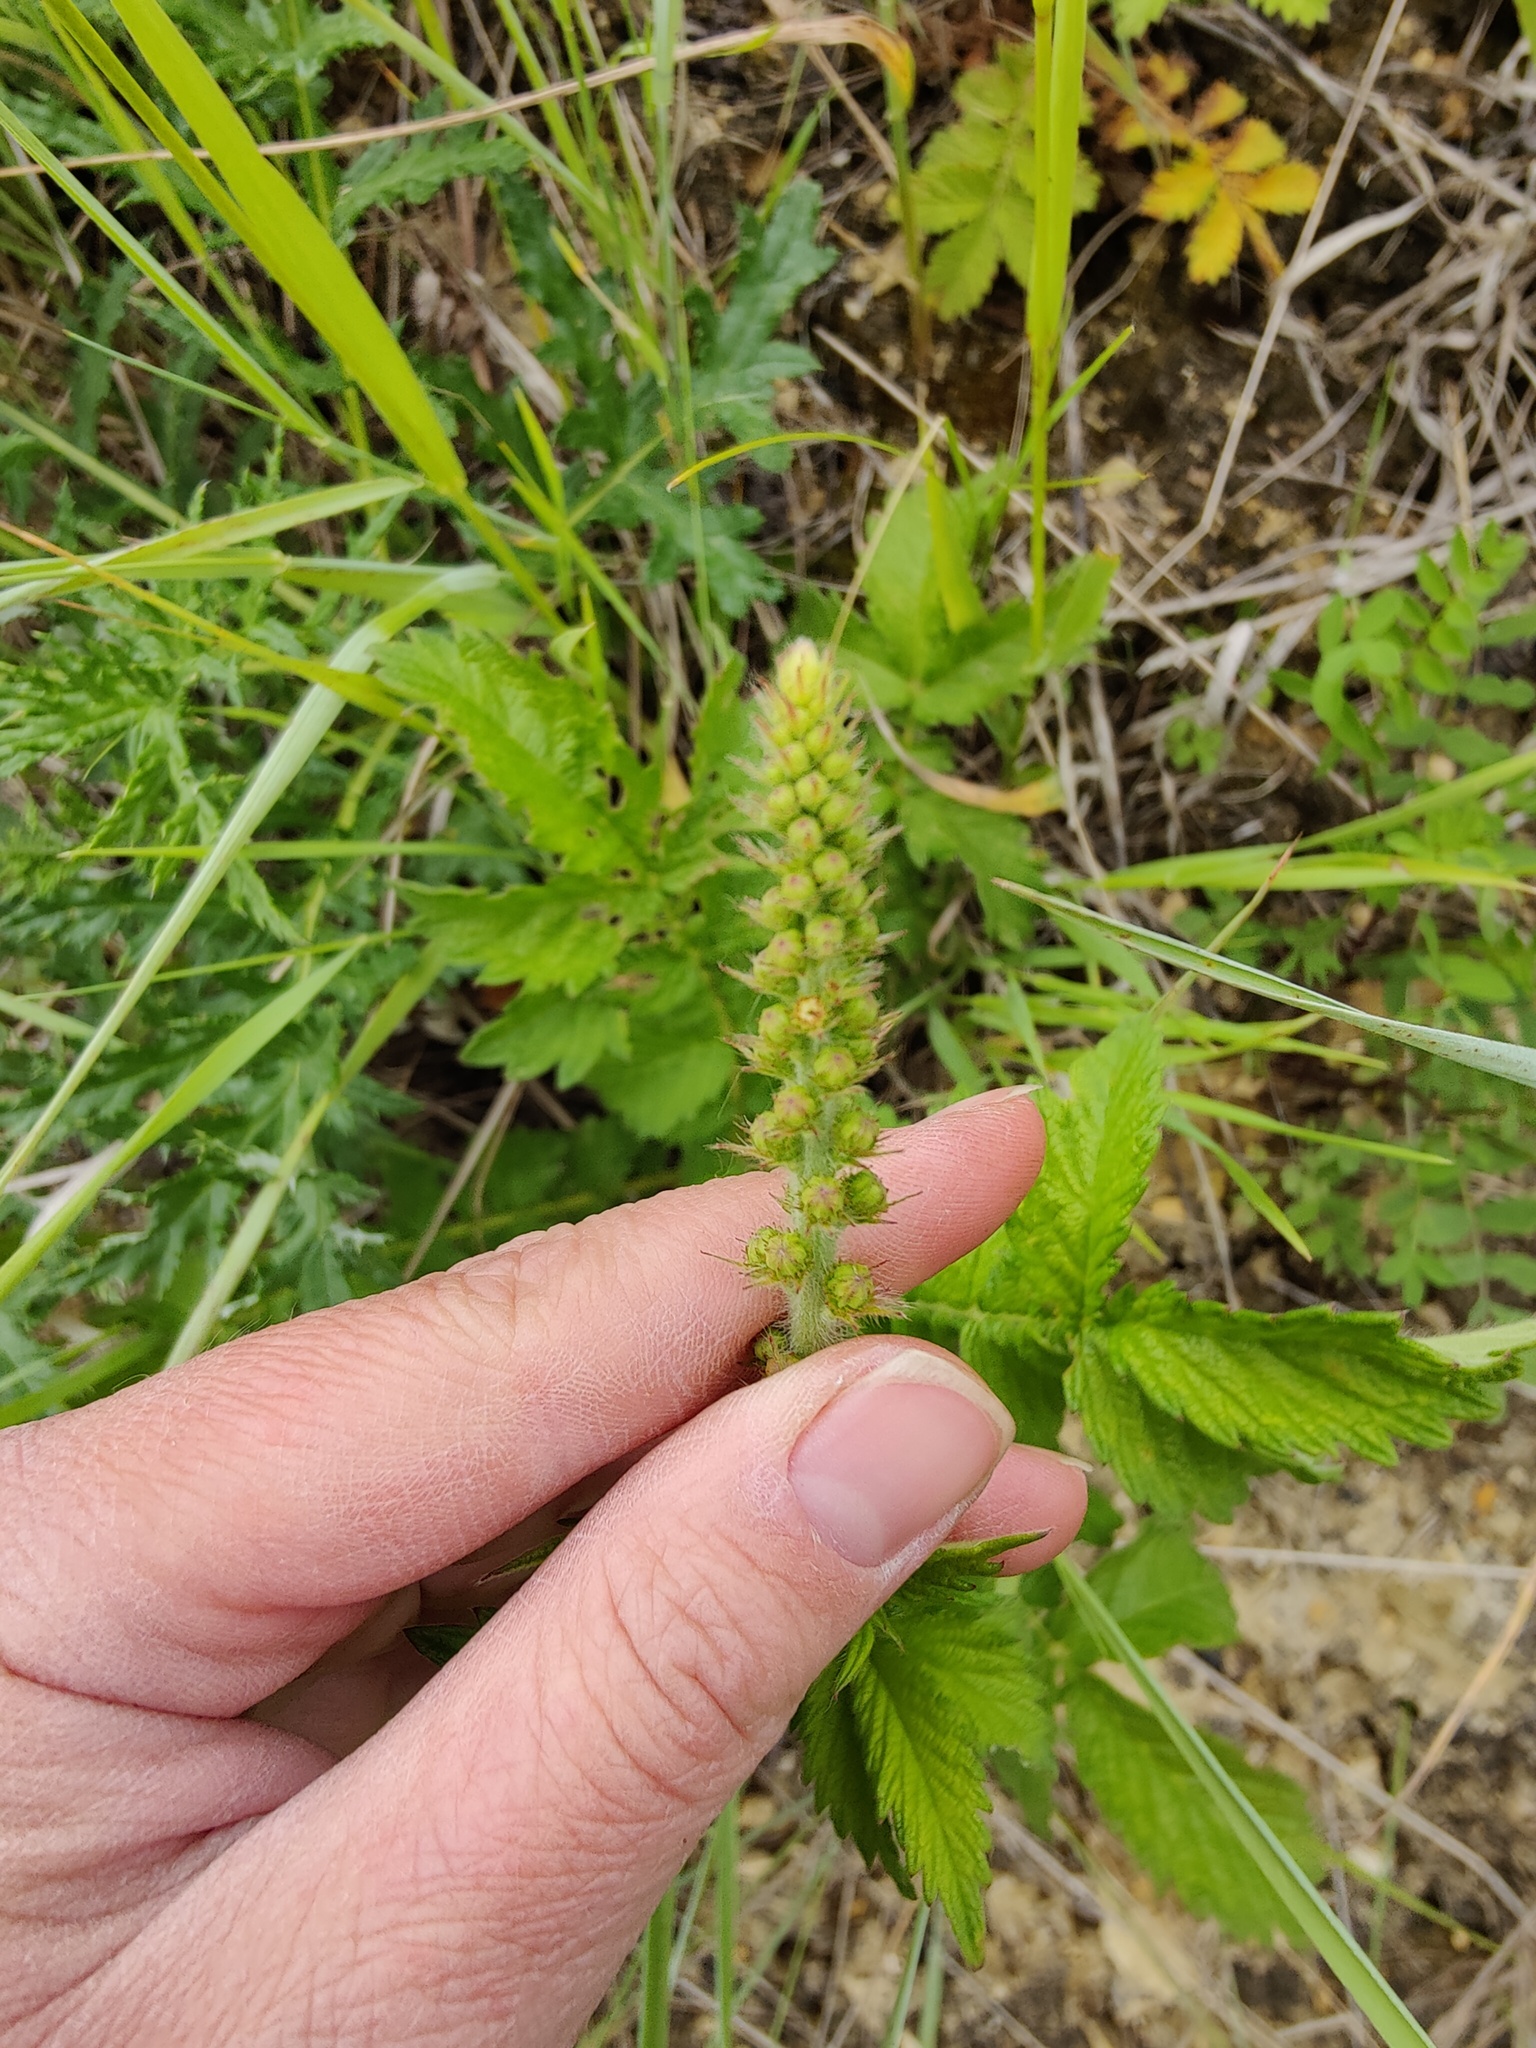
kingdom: Plantae
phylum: Tracheophyta
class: Magnoliopsida
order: Rosales
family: Rosaceae
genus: Agrimonia
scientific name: Agrimonia eupatoria
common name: Agrimony
